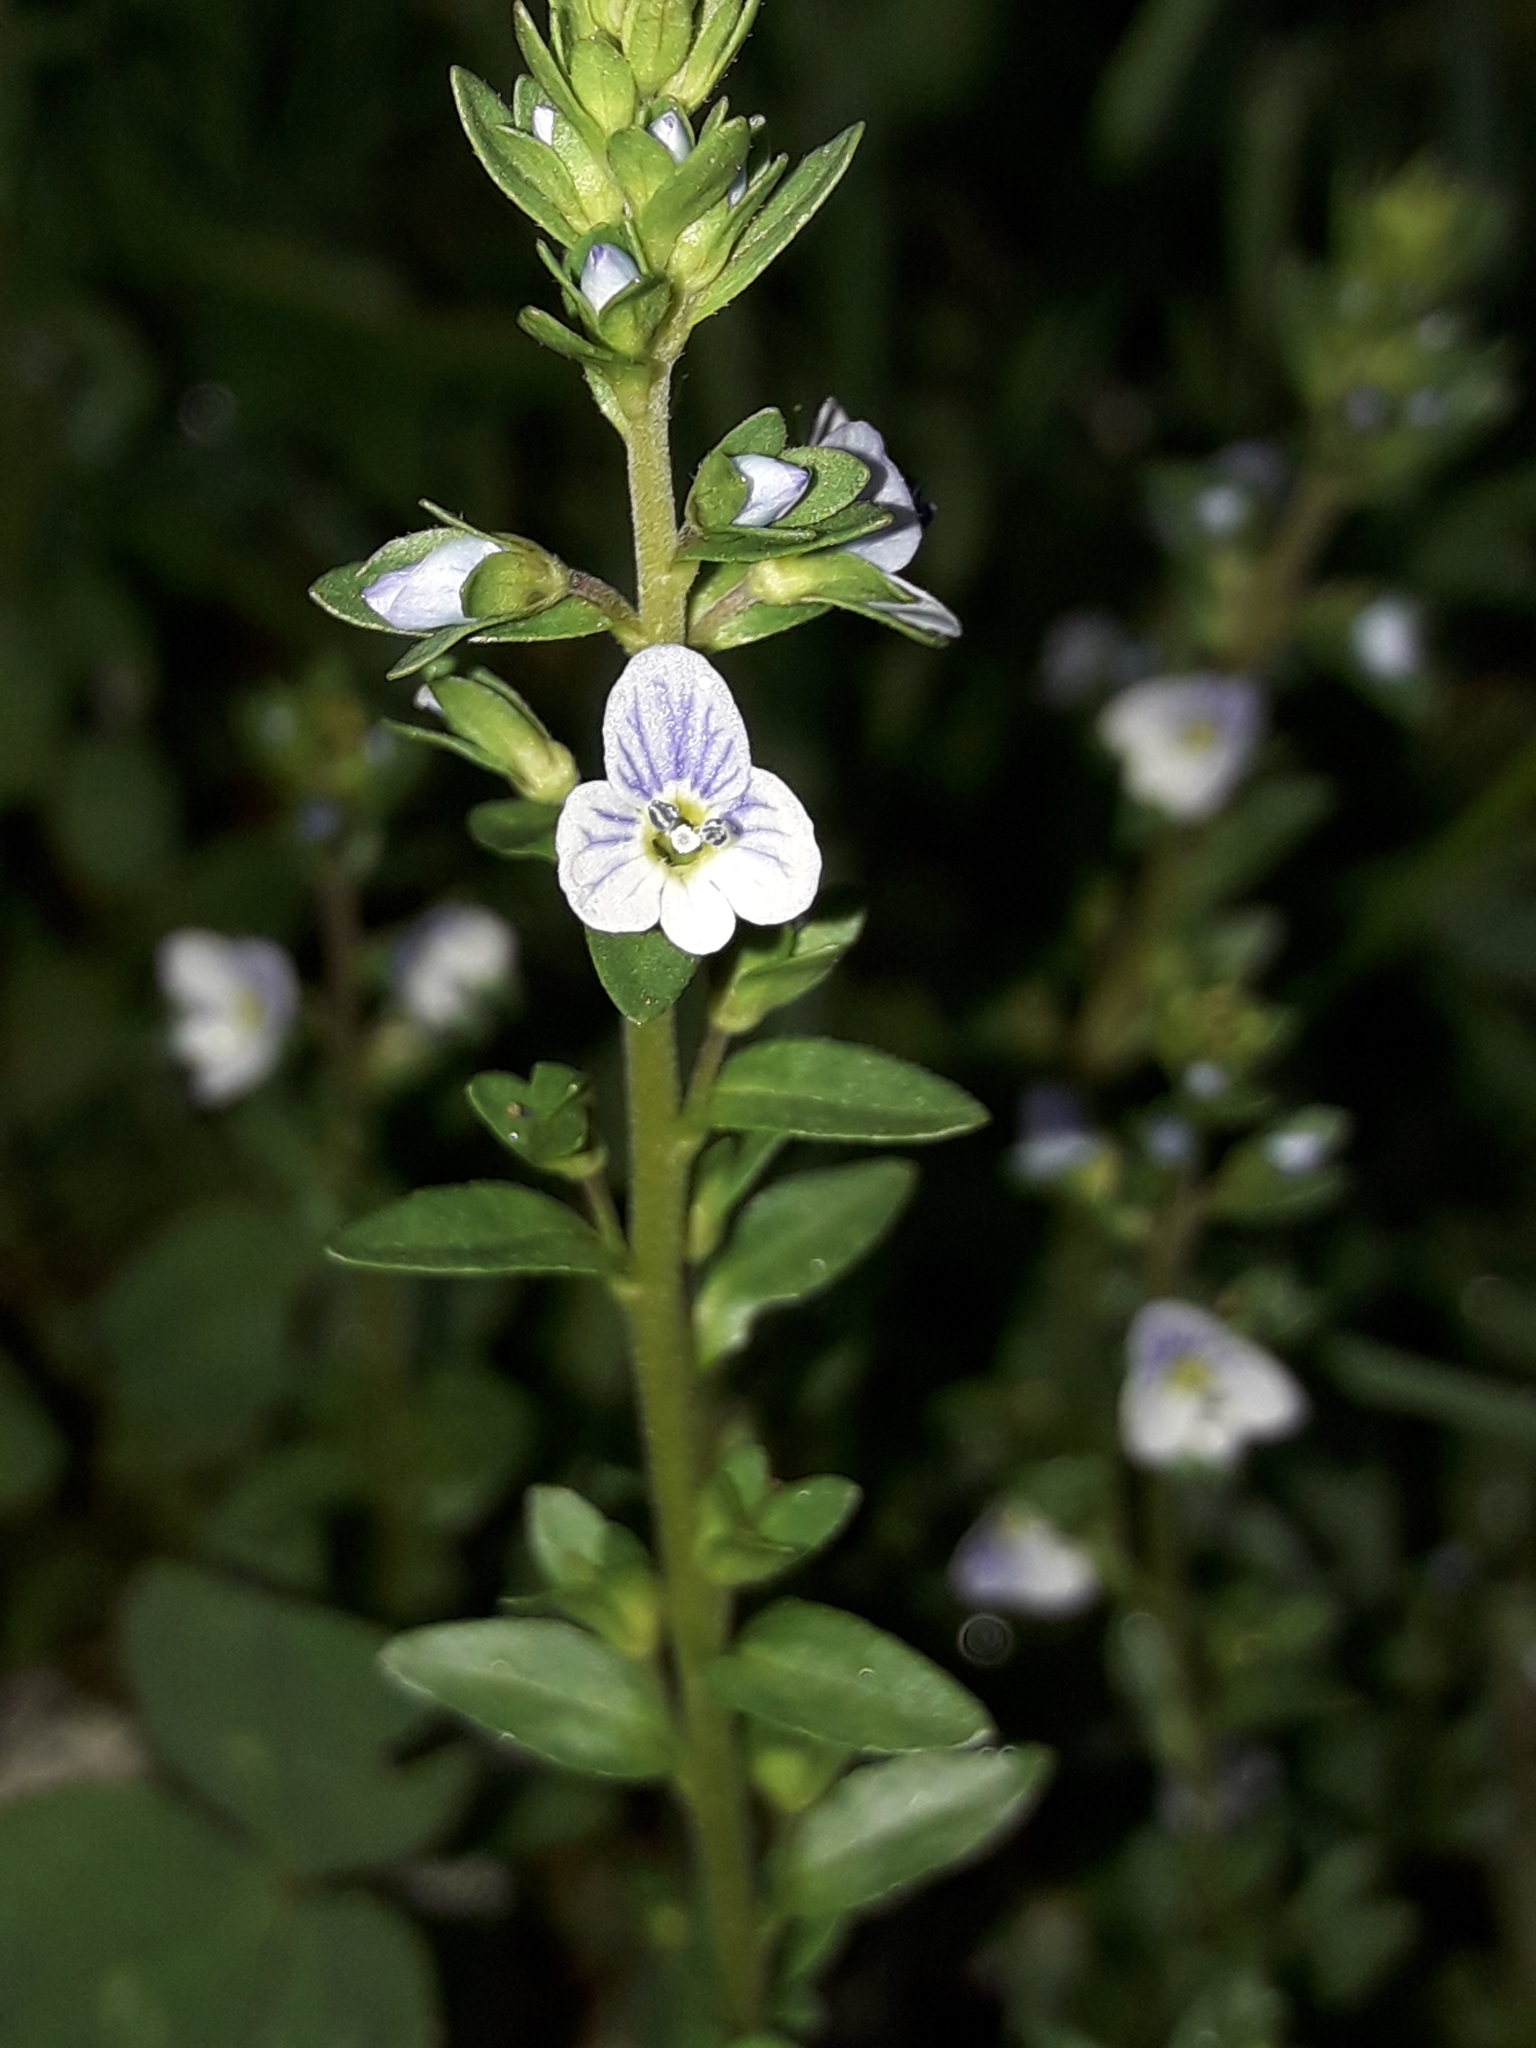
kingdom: Plantae
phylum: Tracheophyta
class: Magnoliopsida
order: Lamiales
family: Plantaginaceae
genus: Veronica
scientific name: Veronica serpyllifolia
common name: Thyme-leaved speedwell
